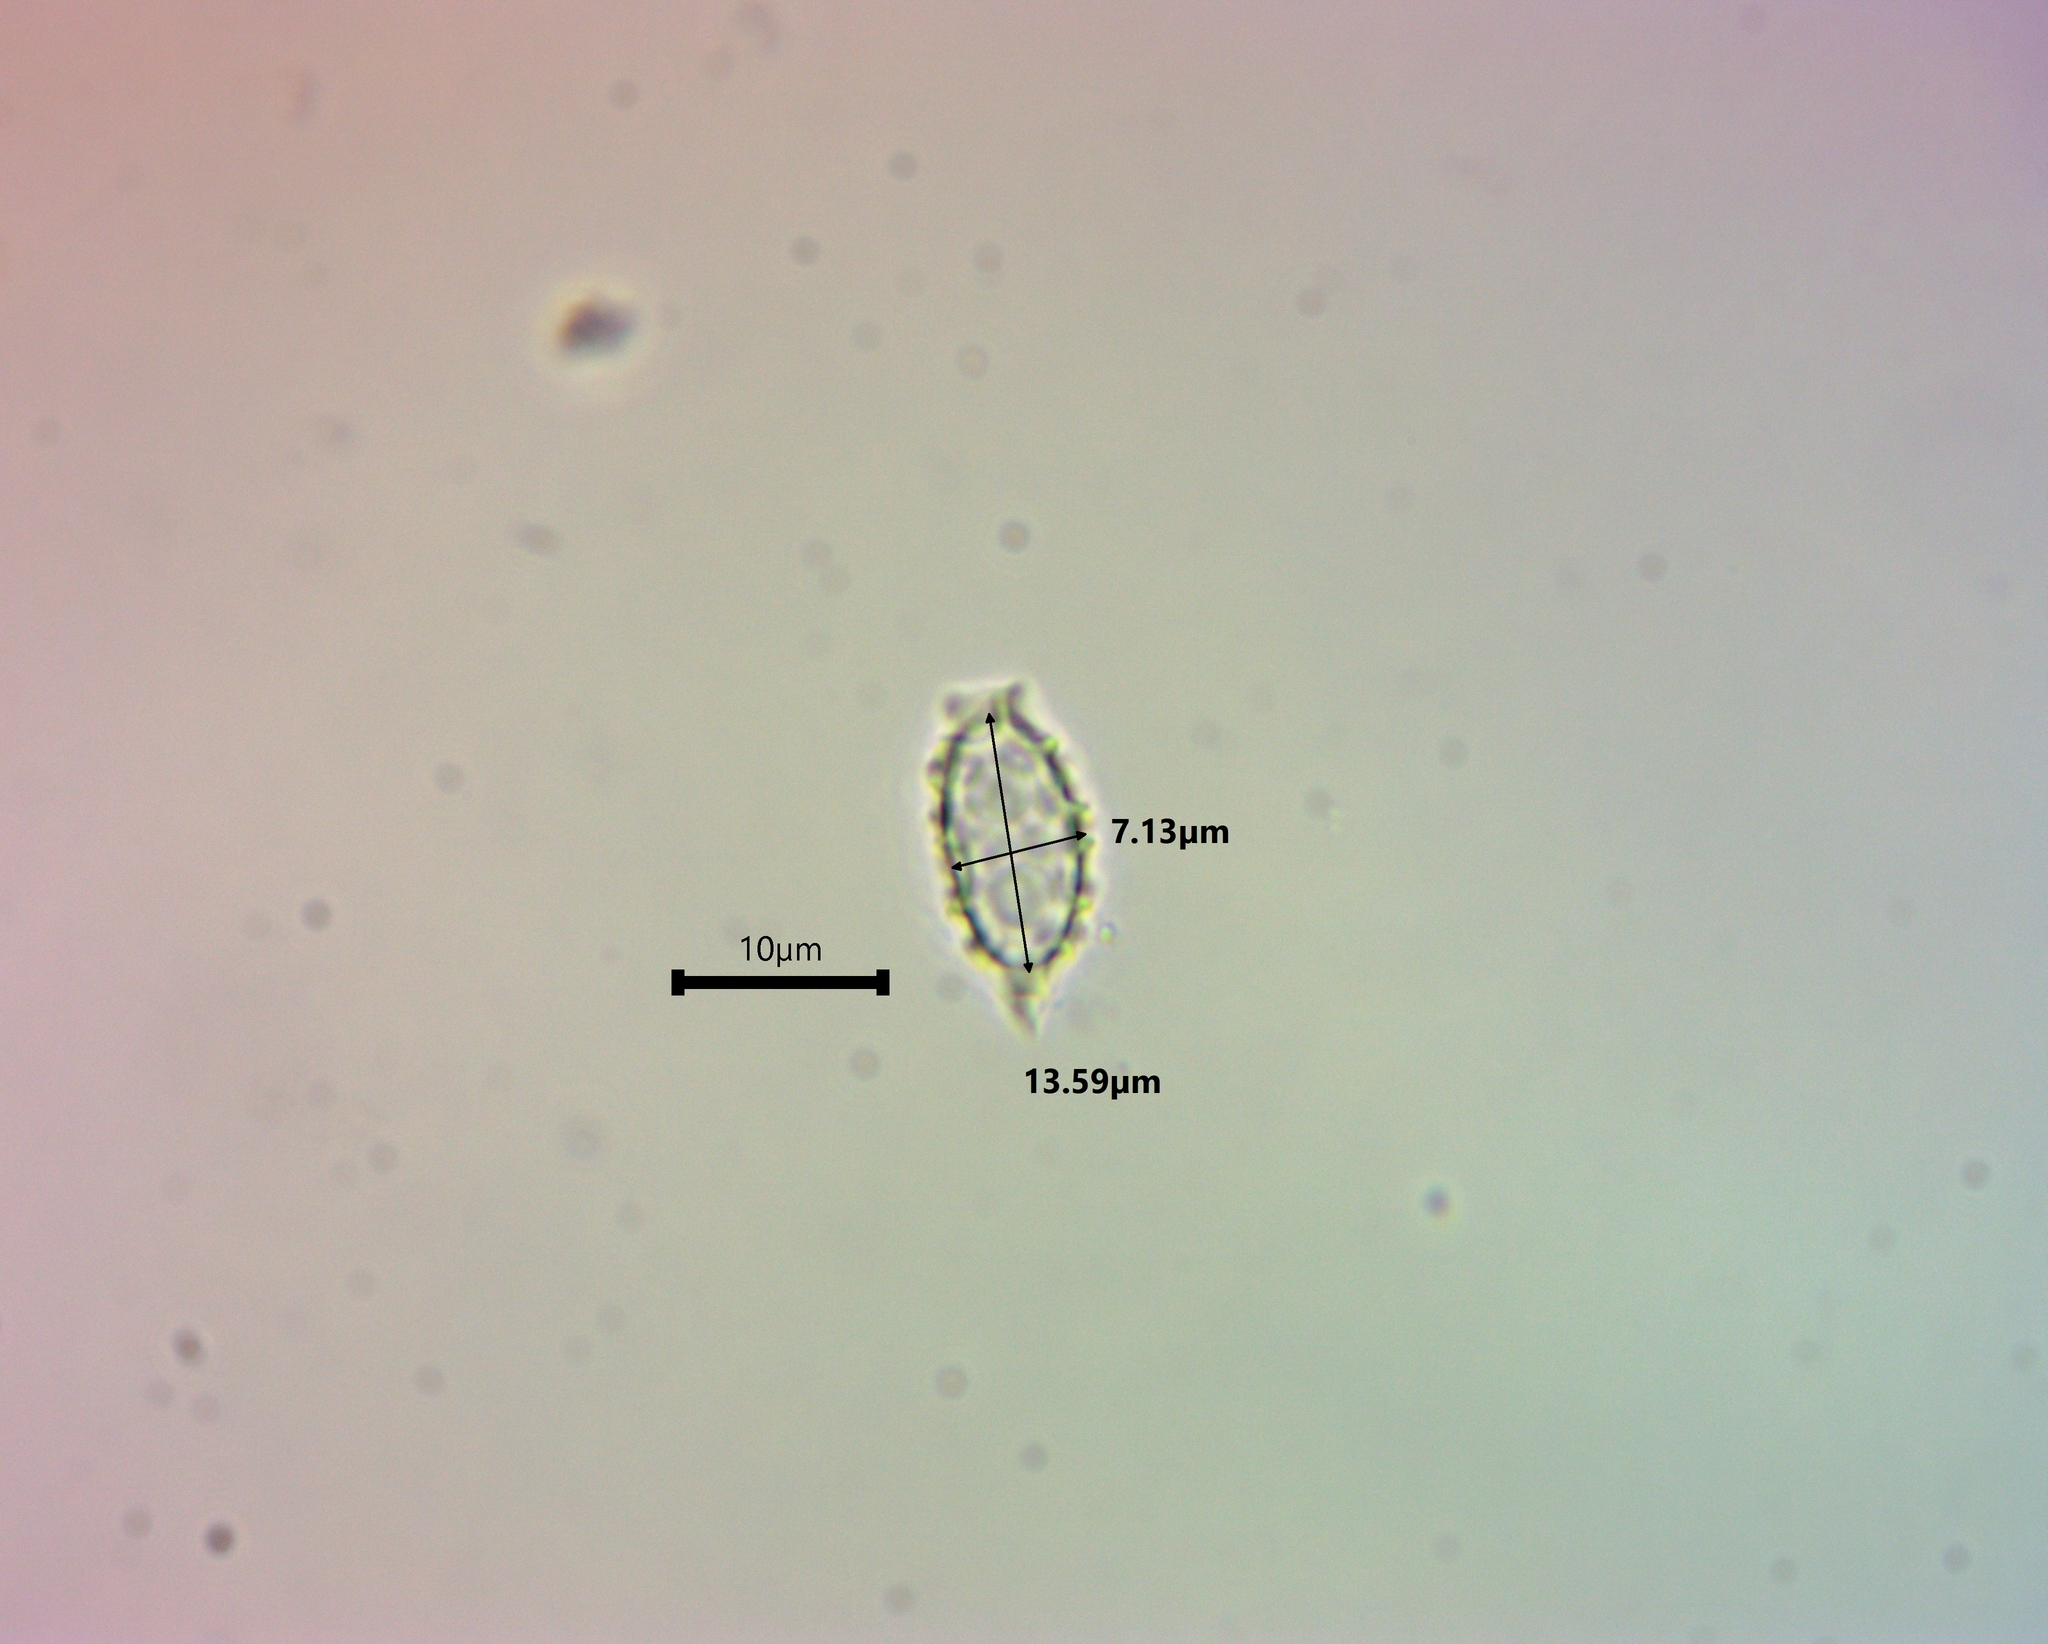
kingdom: Fungi
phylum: Ascomycota
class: Pezizomycetes
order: Pezizales
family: Pyronemataceae
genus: Aleuria
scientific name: Aleuria aurantia
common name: Orange peel fungus
